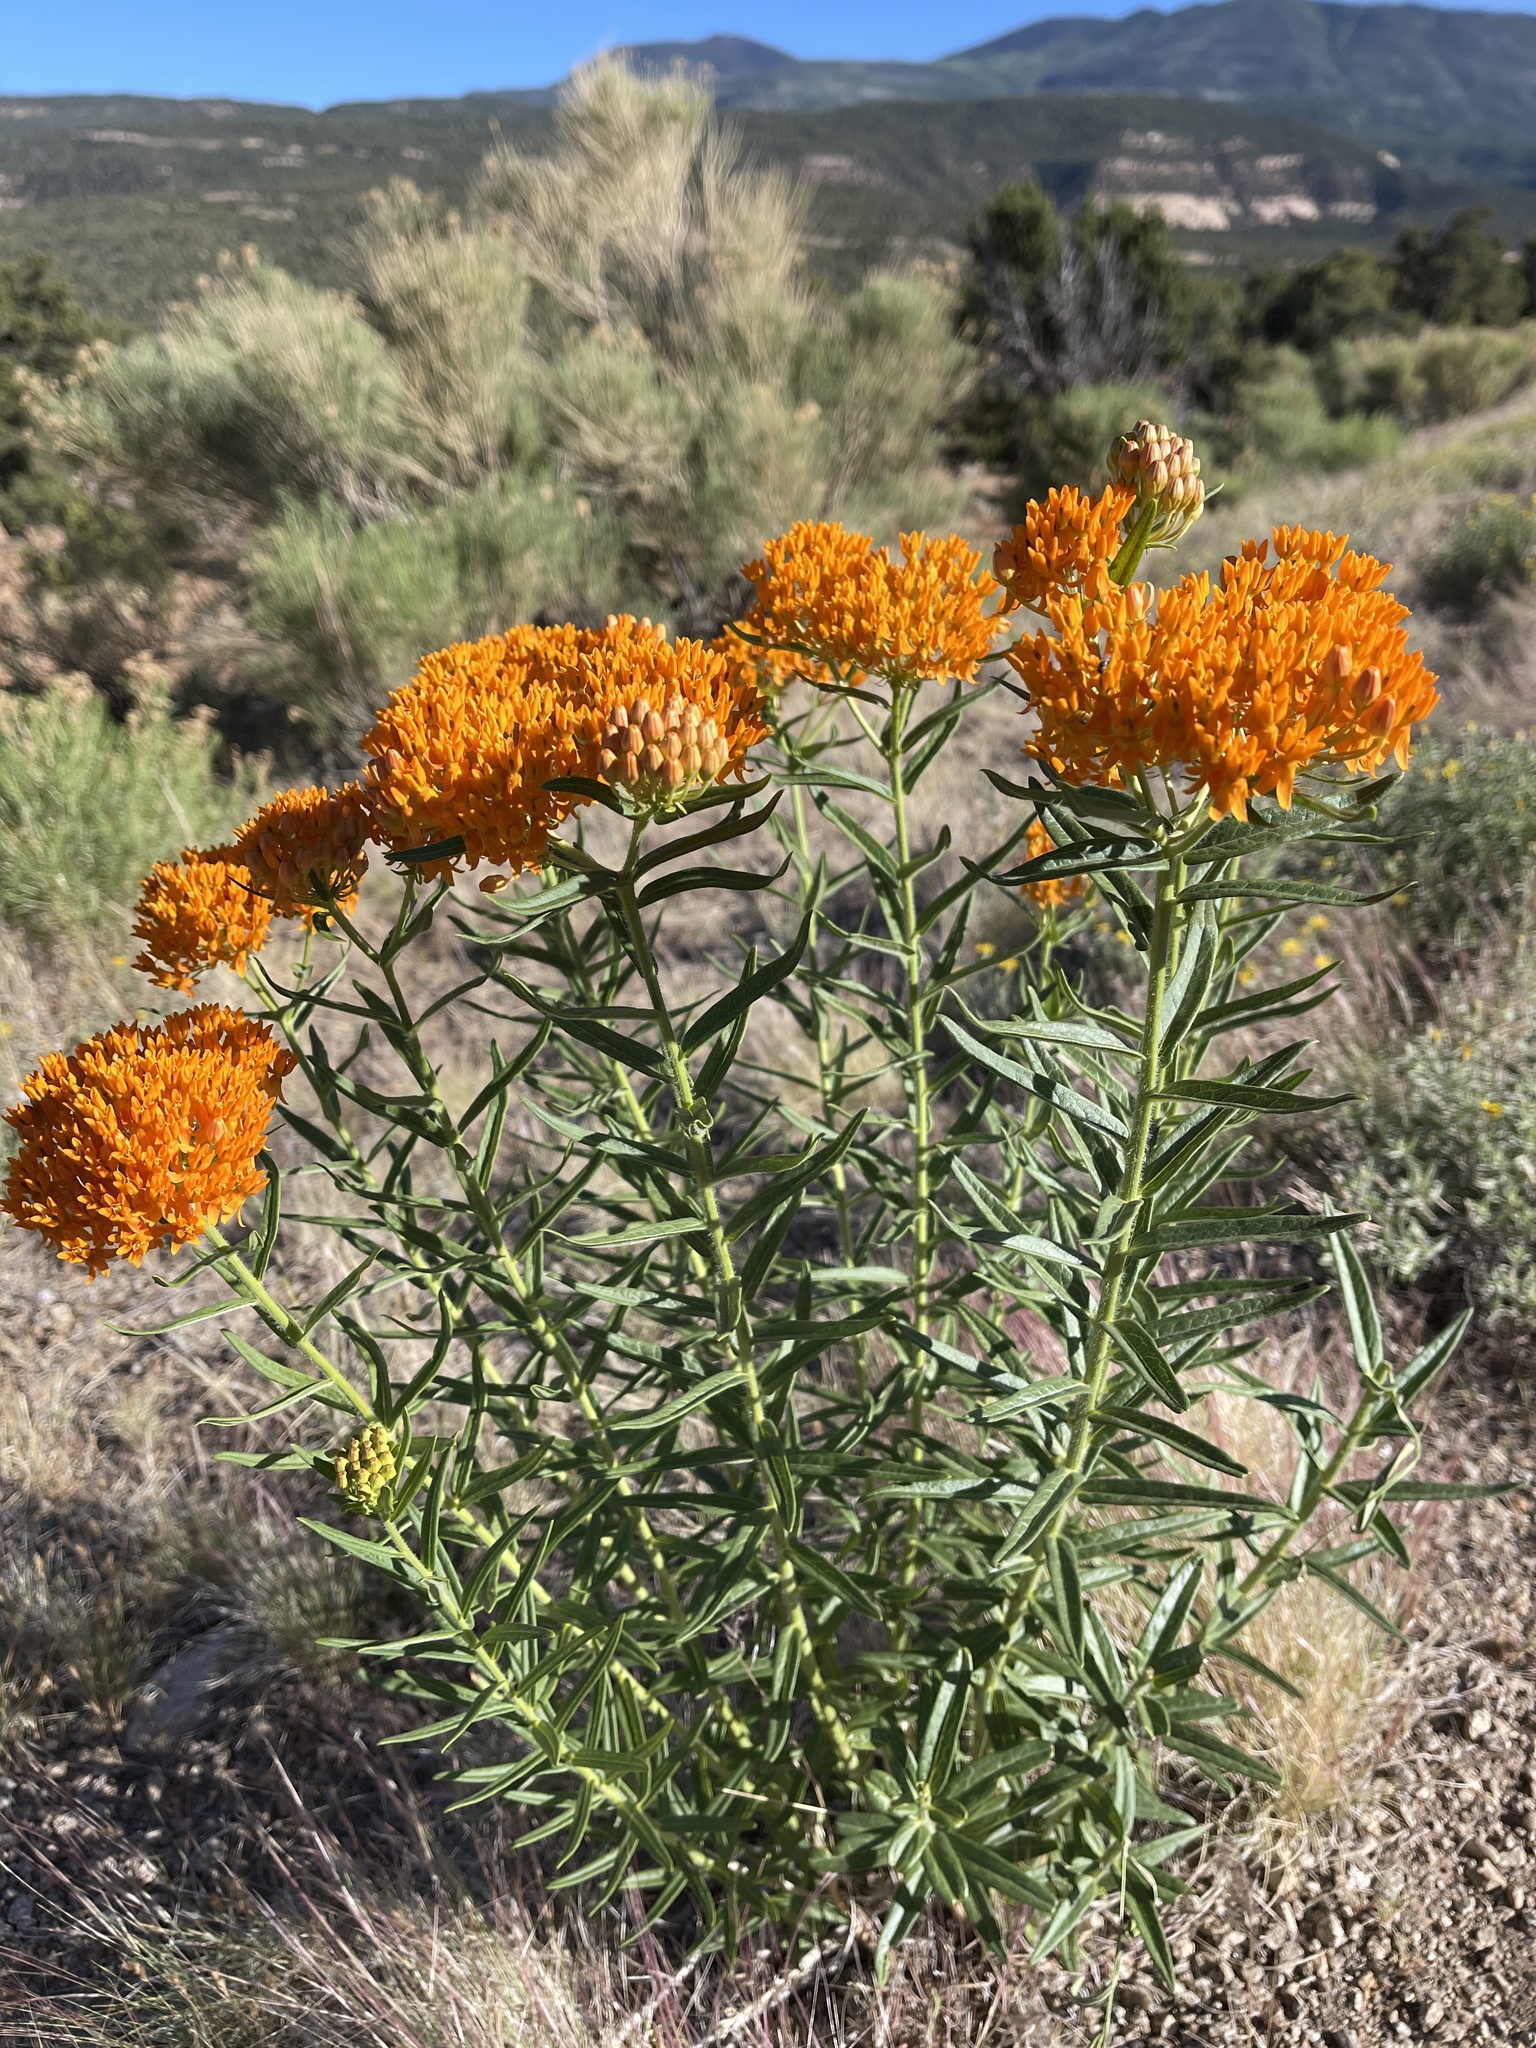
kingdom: Plantae
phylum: Tracheophyta
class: Magnoliopsida
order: Gentianales
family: Apocynaceae
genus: Asclepias
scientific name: Asclepias tuberosa
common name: Butterfly milkweed
